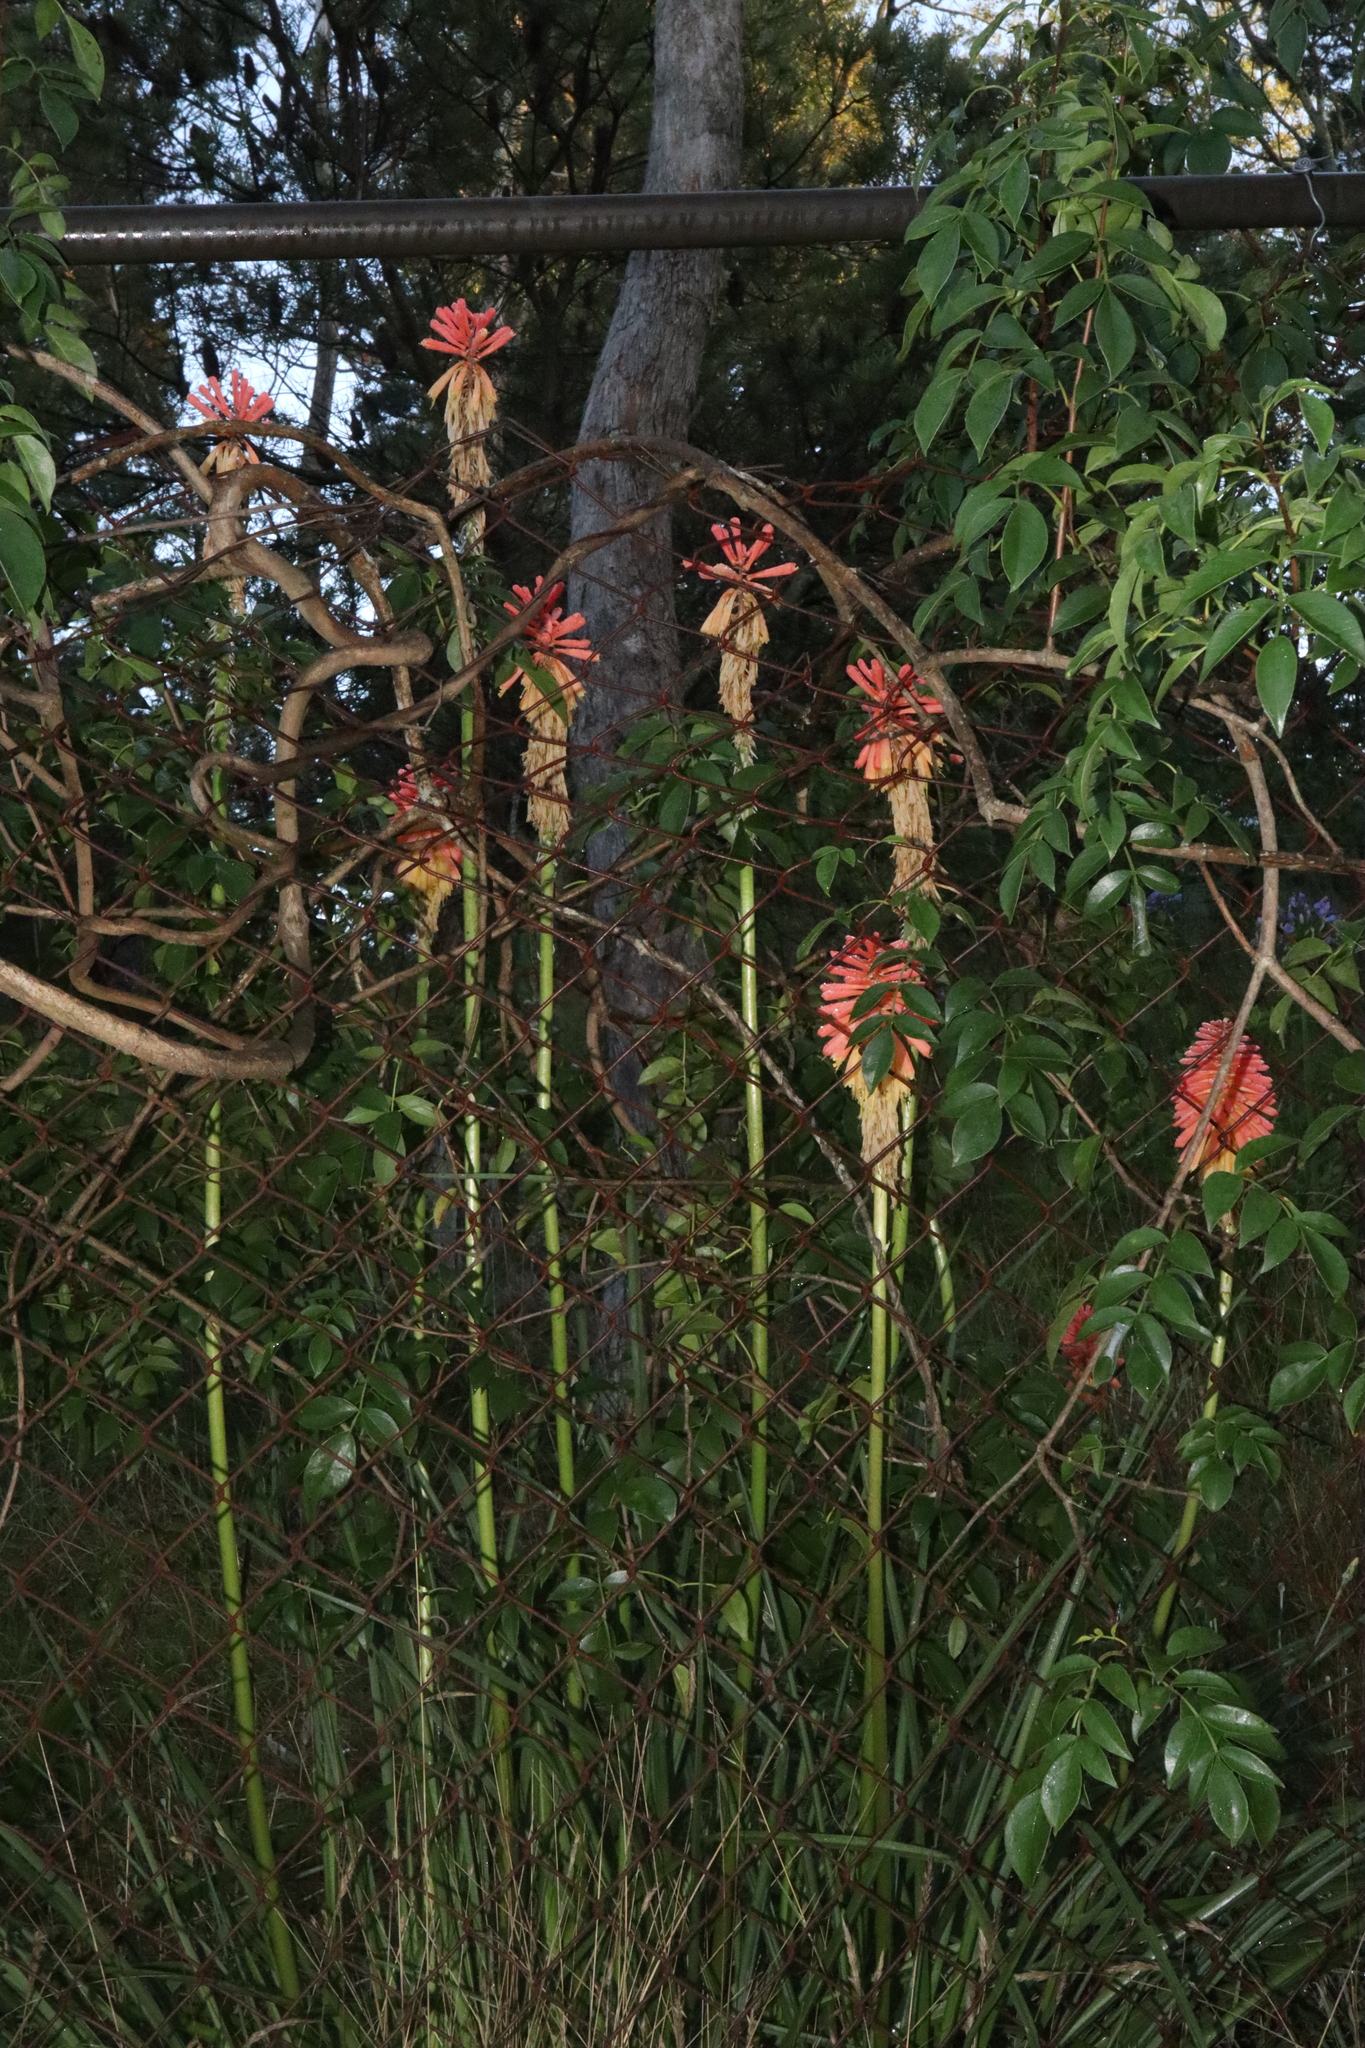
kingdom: Plantae
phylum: Tracheophyta
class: Liliopsida
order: Asparagales
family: Asphodelaceae
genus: Kniphofia
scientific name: Kniphofia uvaria
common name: Red-hot-poker
